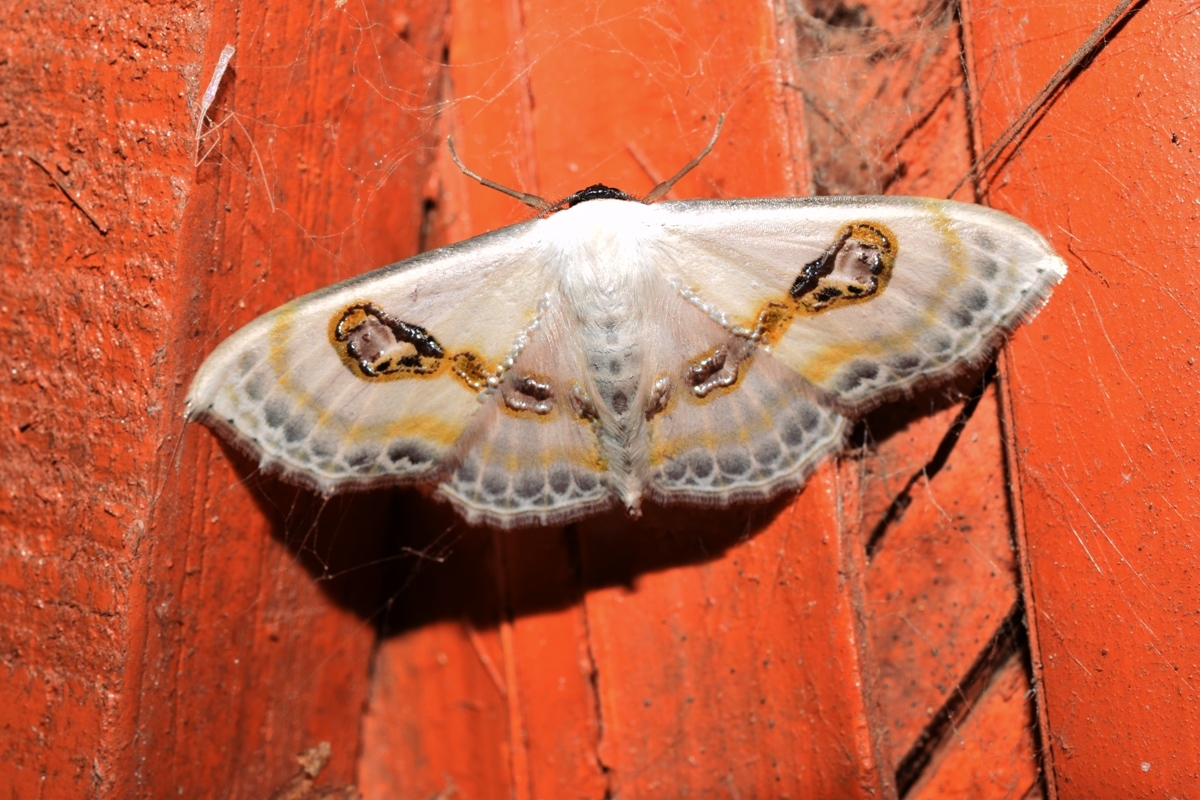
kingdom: Animalia
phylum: Arthropoda
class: Insecta
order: Lepidoptera
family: Geometridae
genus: Problepsis
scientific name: Problepsis vulgaris
